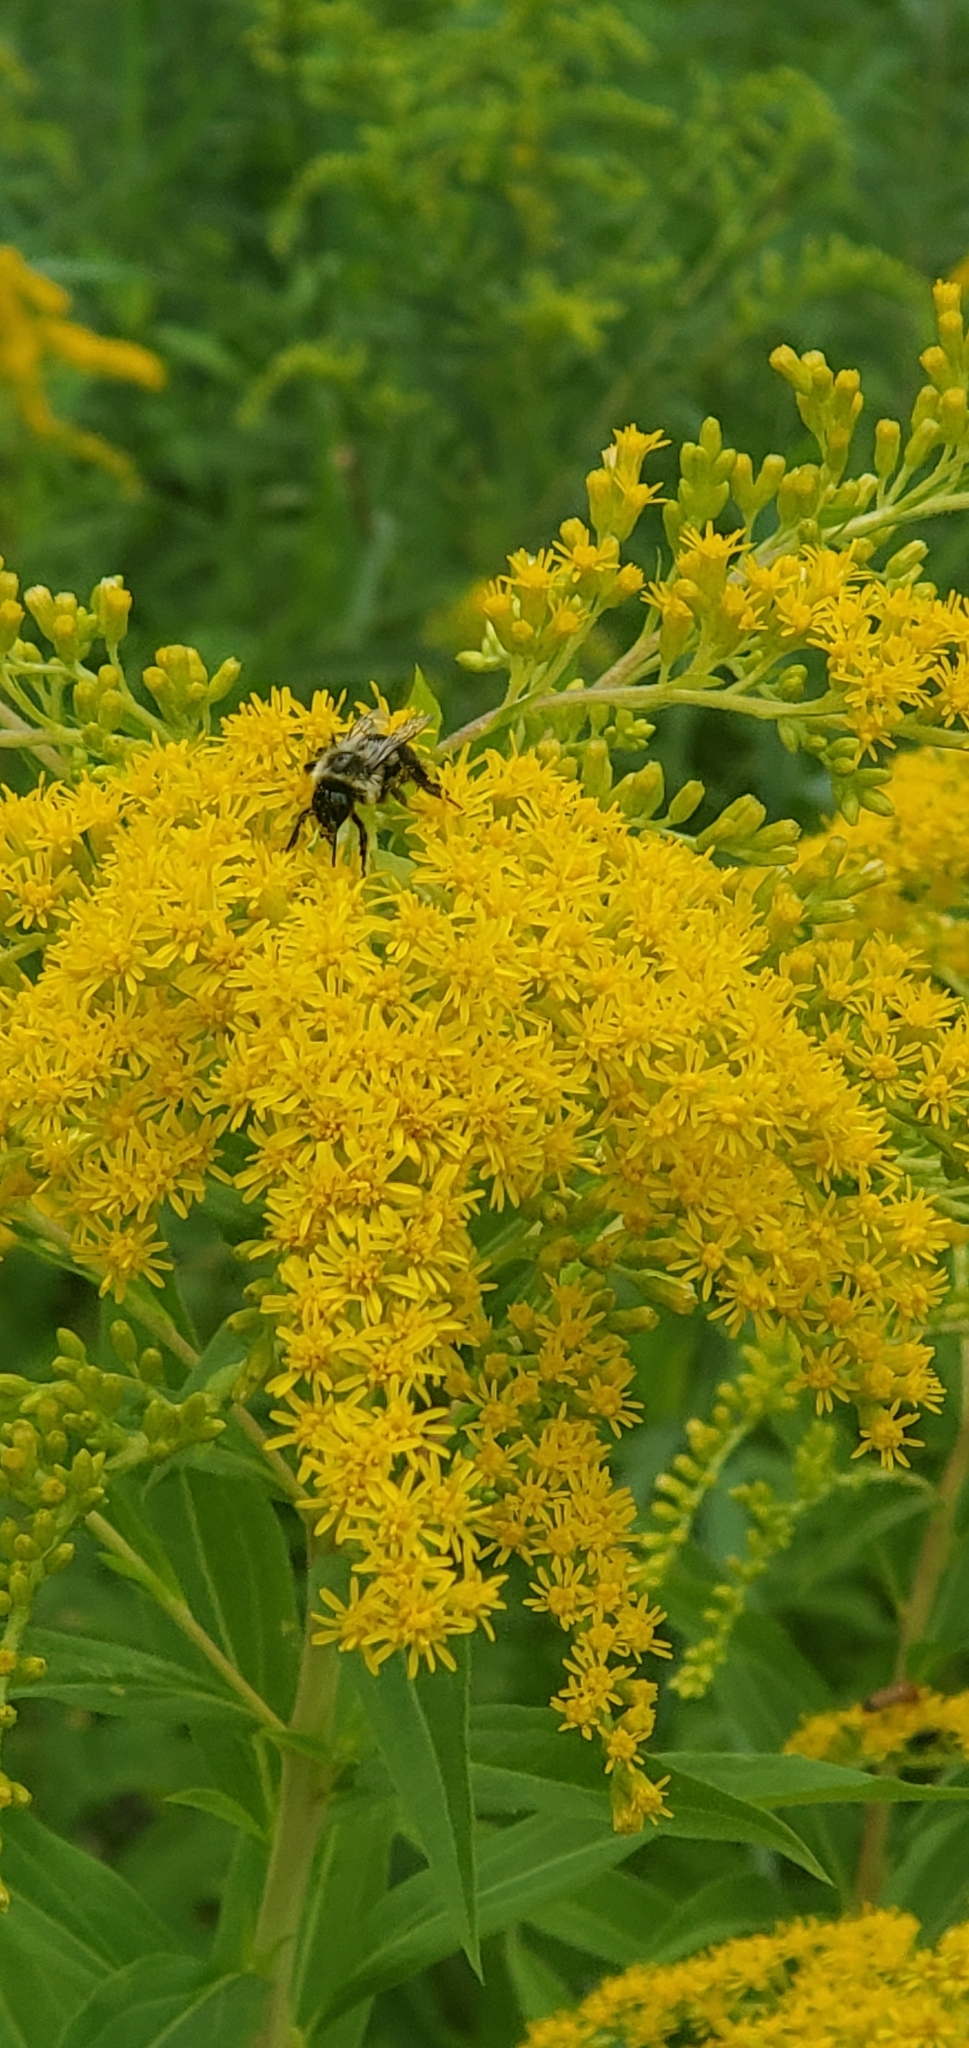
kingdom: Animalia
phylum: Arthropoda
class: Insecta
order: Hymenoptera
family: Apidae
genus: Bombus
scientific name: Bombus impatiens
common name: Common eastern bumble bee
